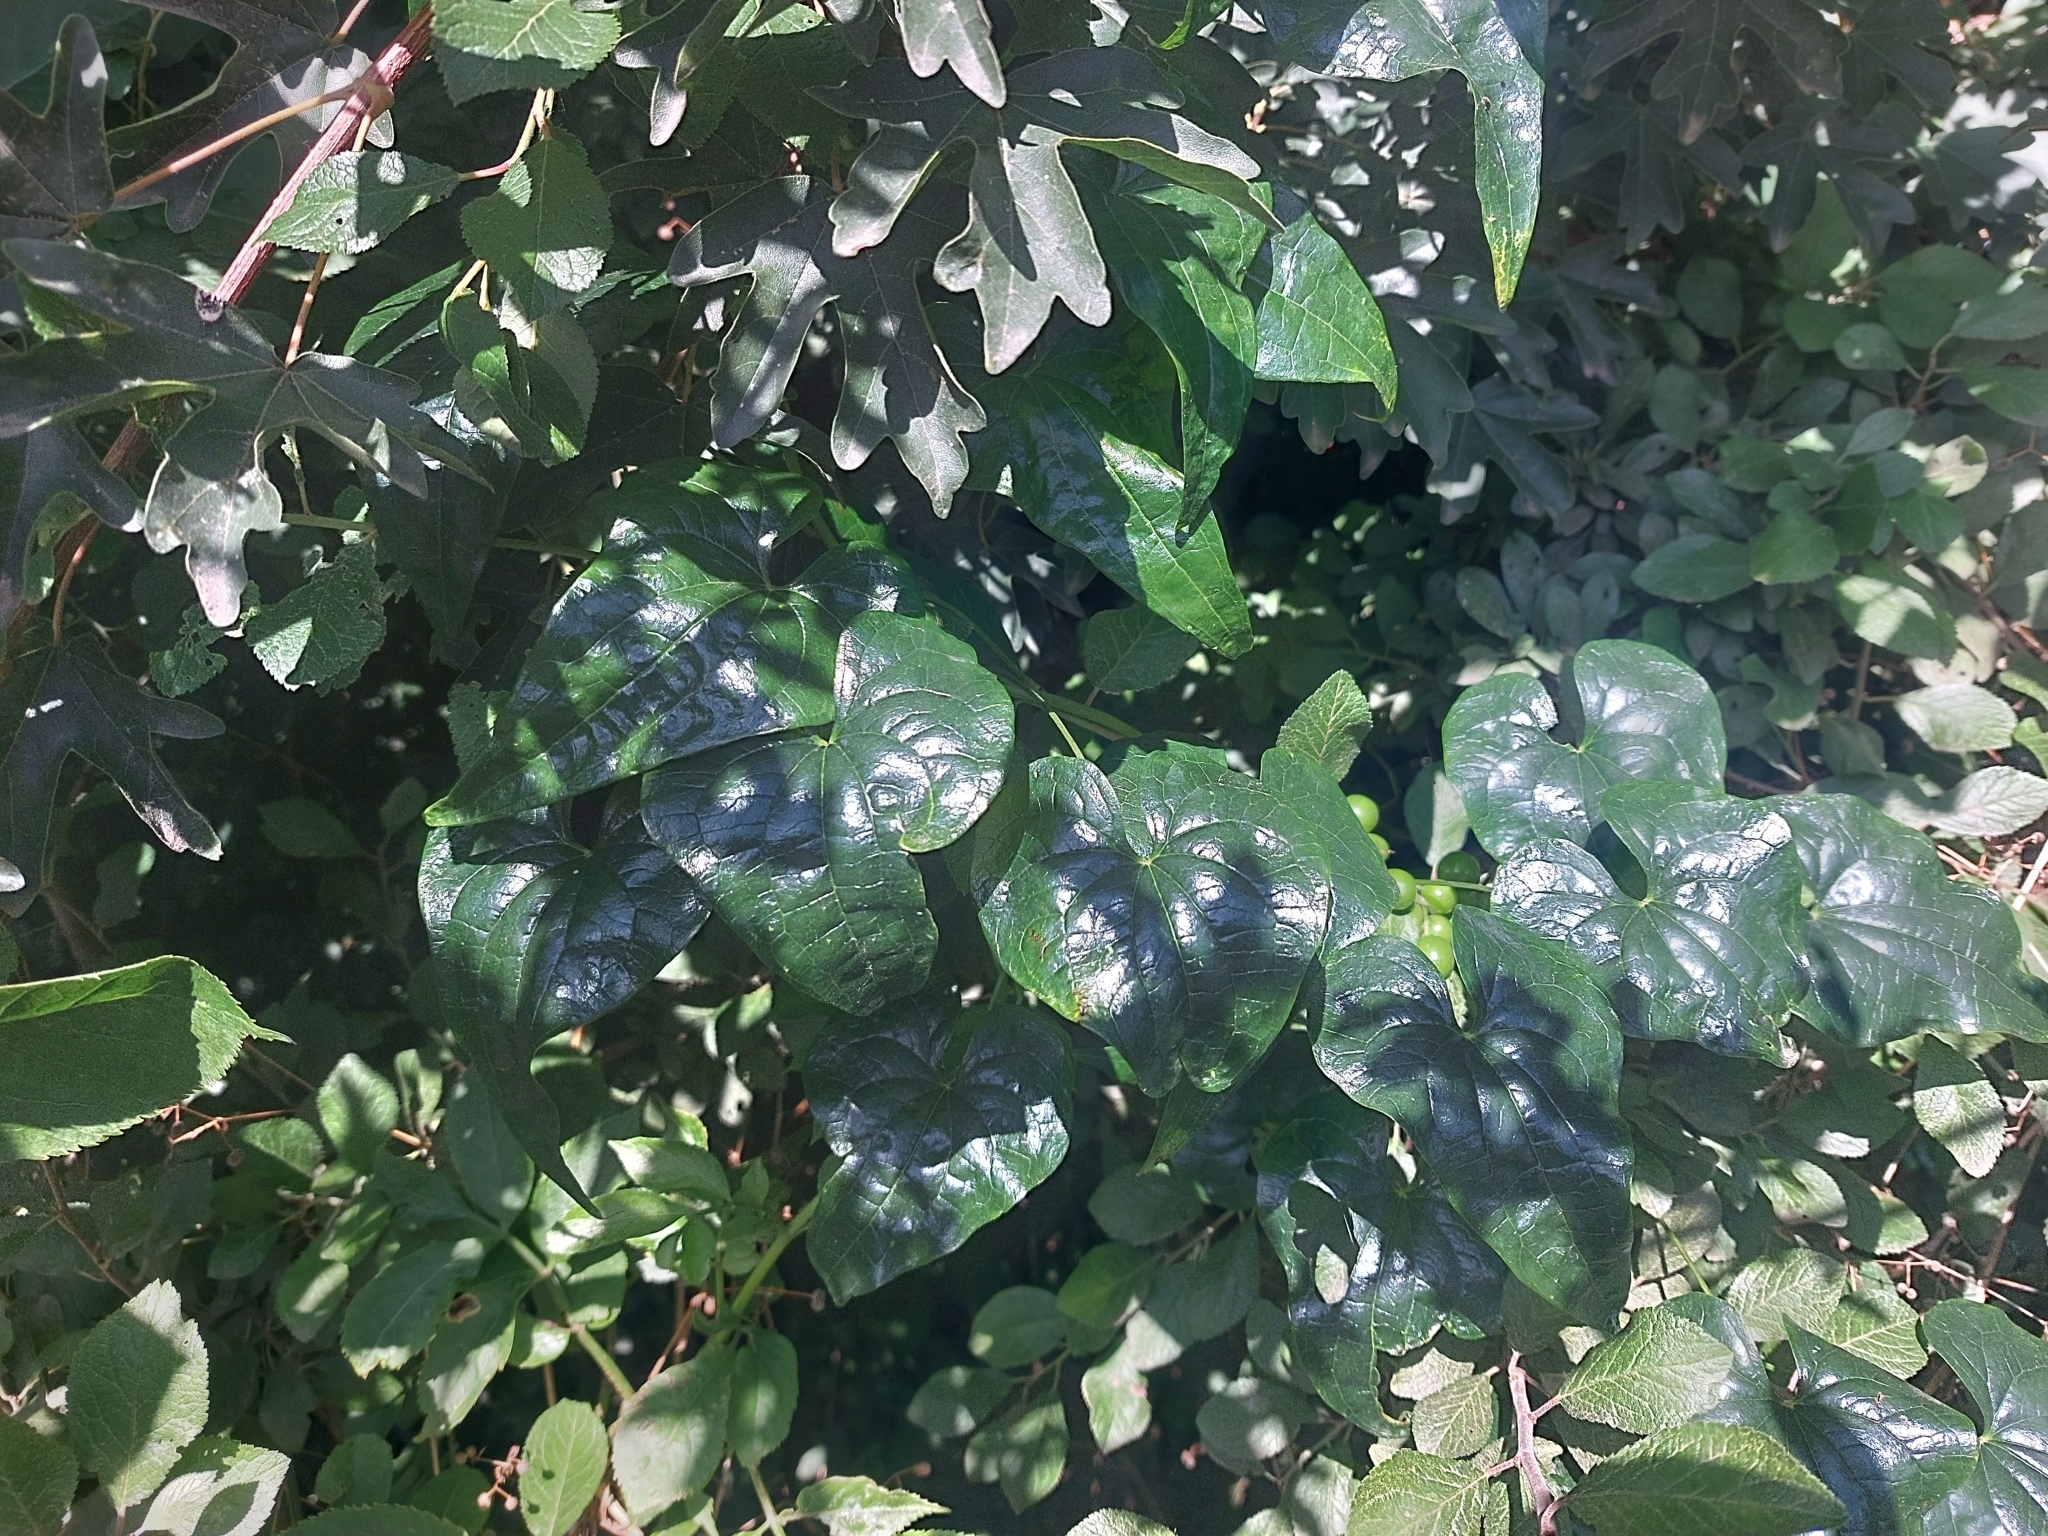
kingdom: Plantae
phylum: Tracheophyta
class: Liliopsida
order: Dioscoreales
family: Dioscoreaceae
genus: Dioscorea
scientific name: Dioscorea communis
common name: Black-bindweed
